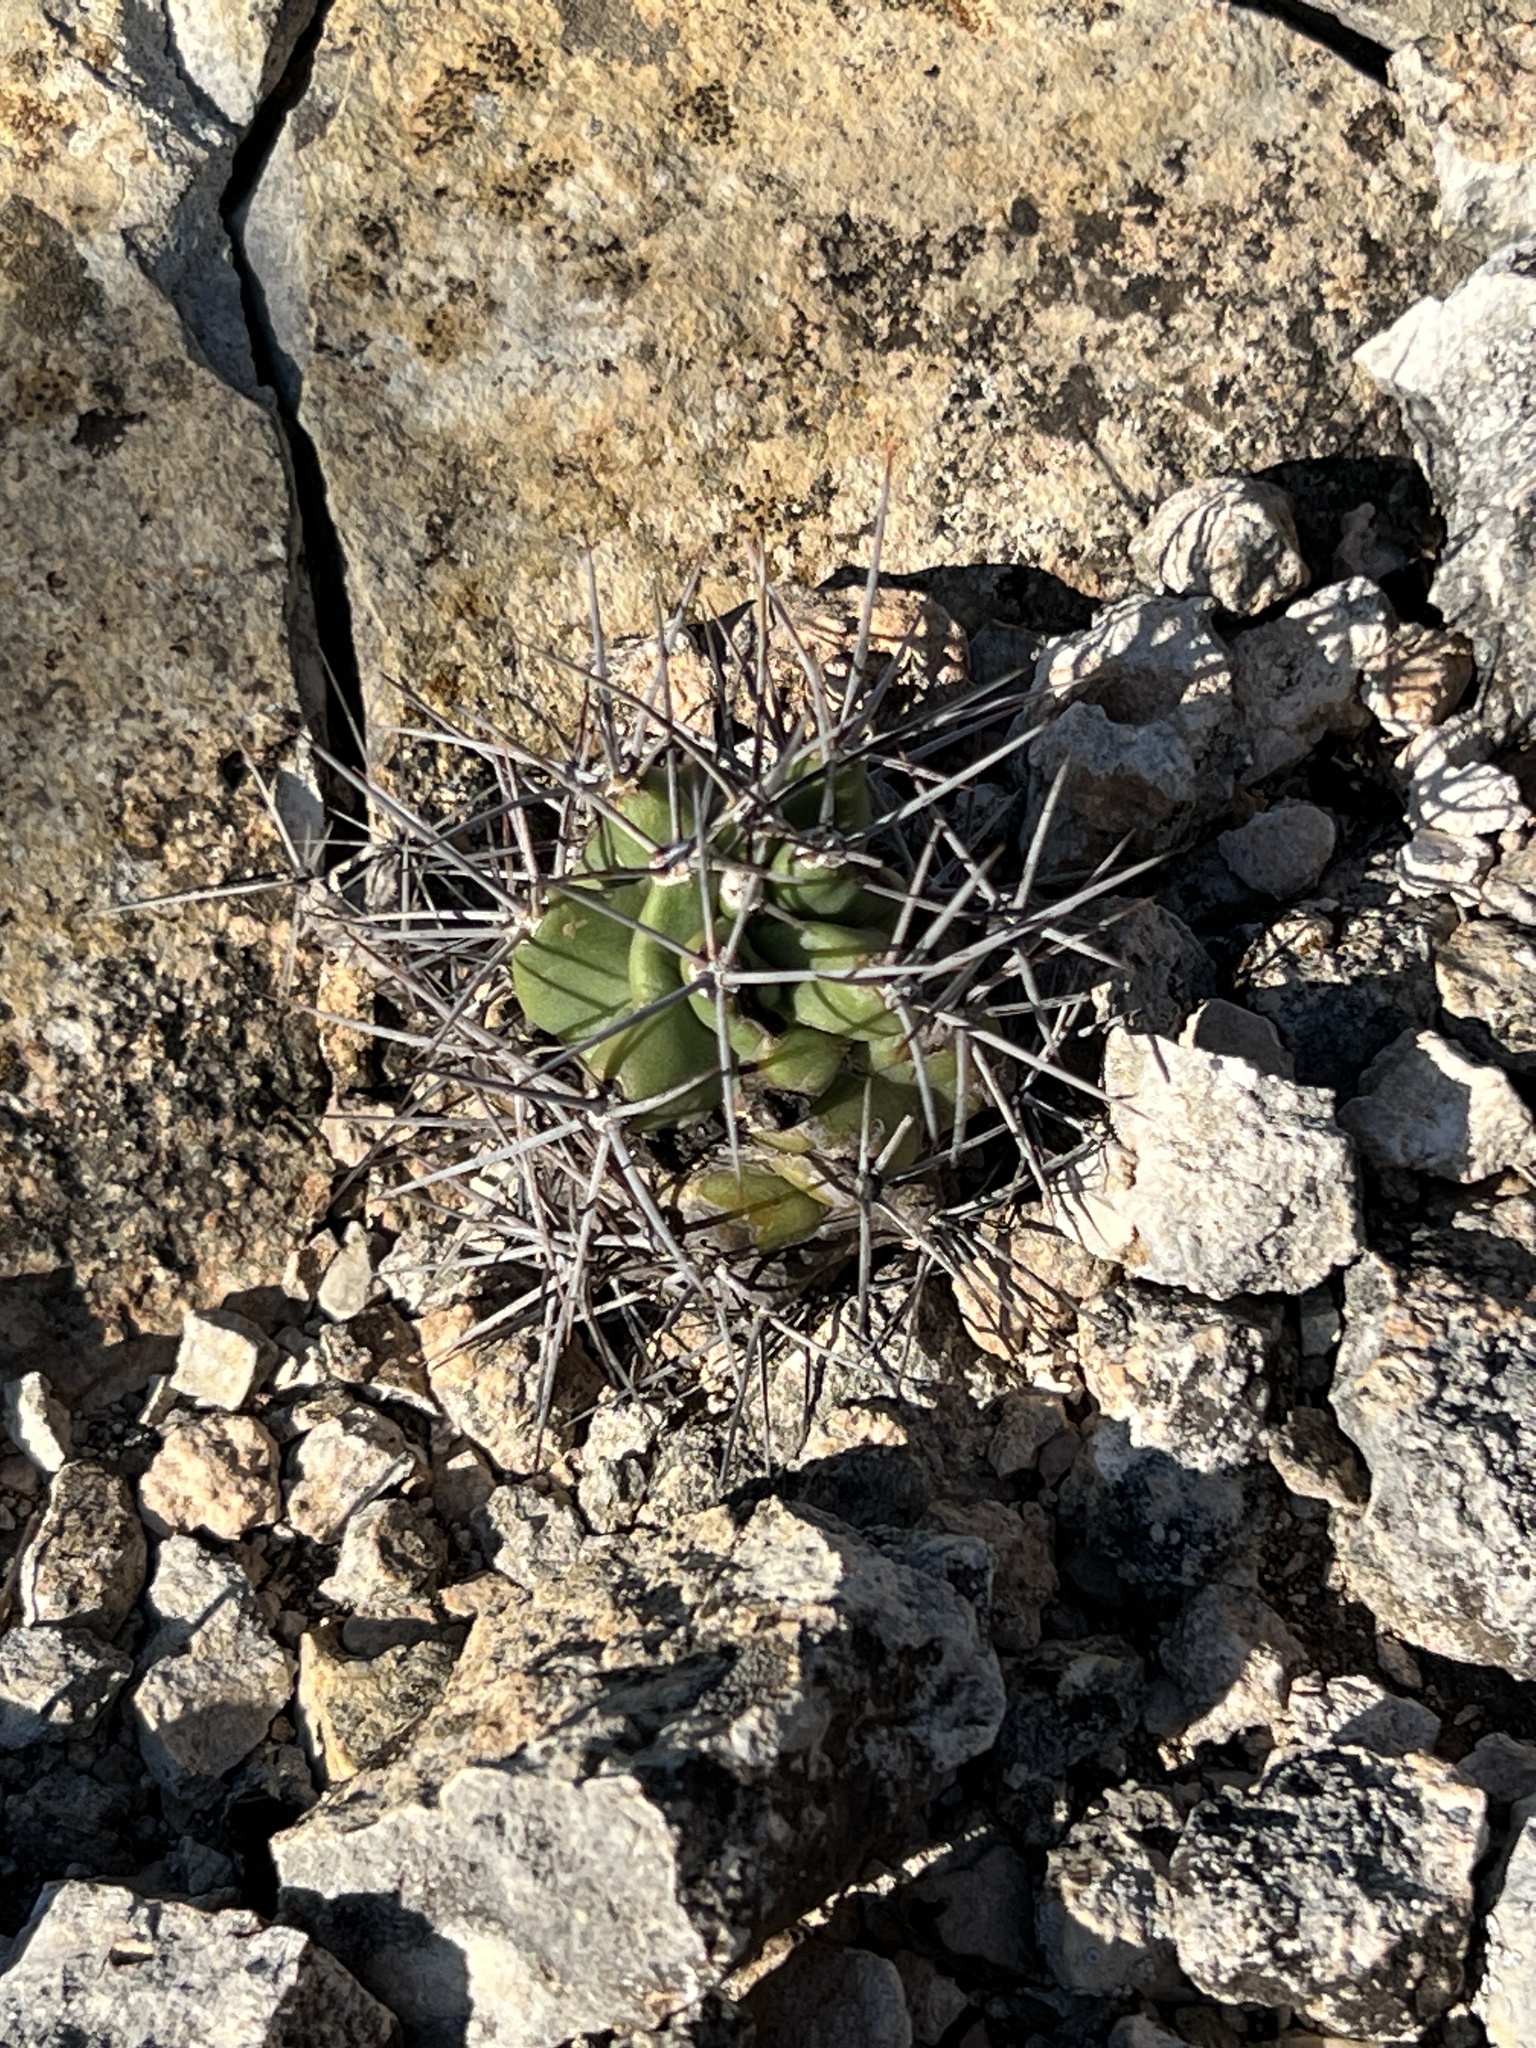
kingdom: Plantae
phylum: Tracheophyta
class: Magnoliopsida
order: Caryophyllales
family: Cactaceae
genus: Echinocereus
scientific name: Echinocereus coccineus
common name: Scarlet hedgehog cactus
